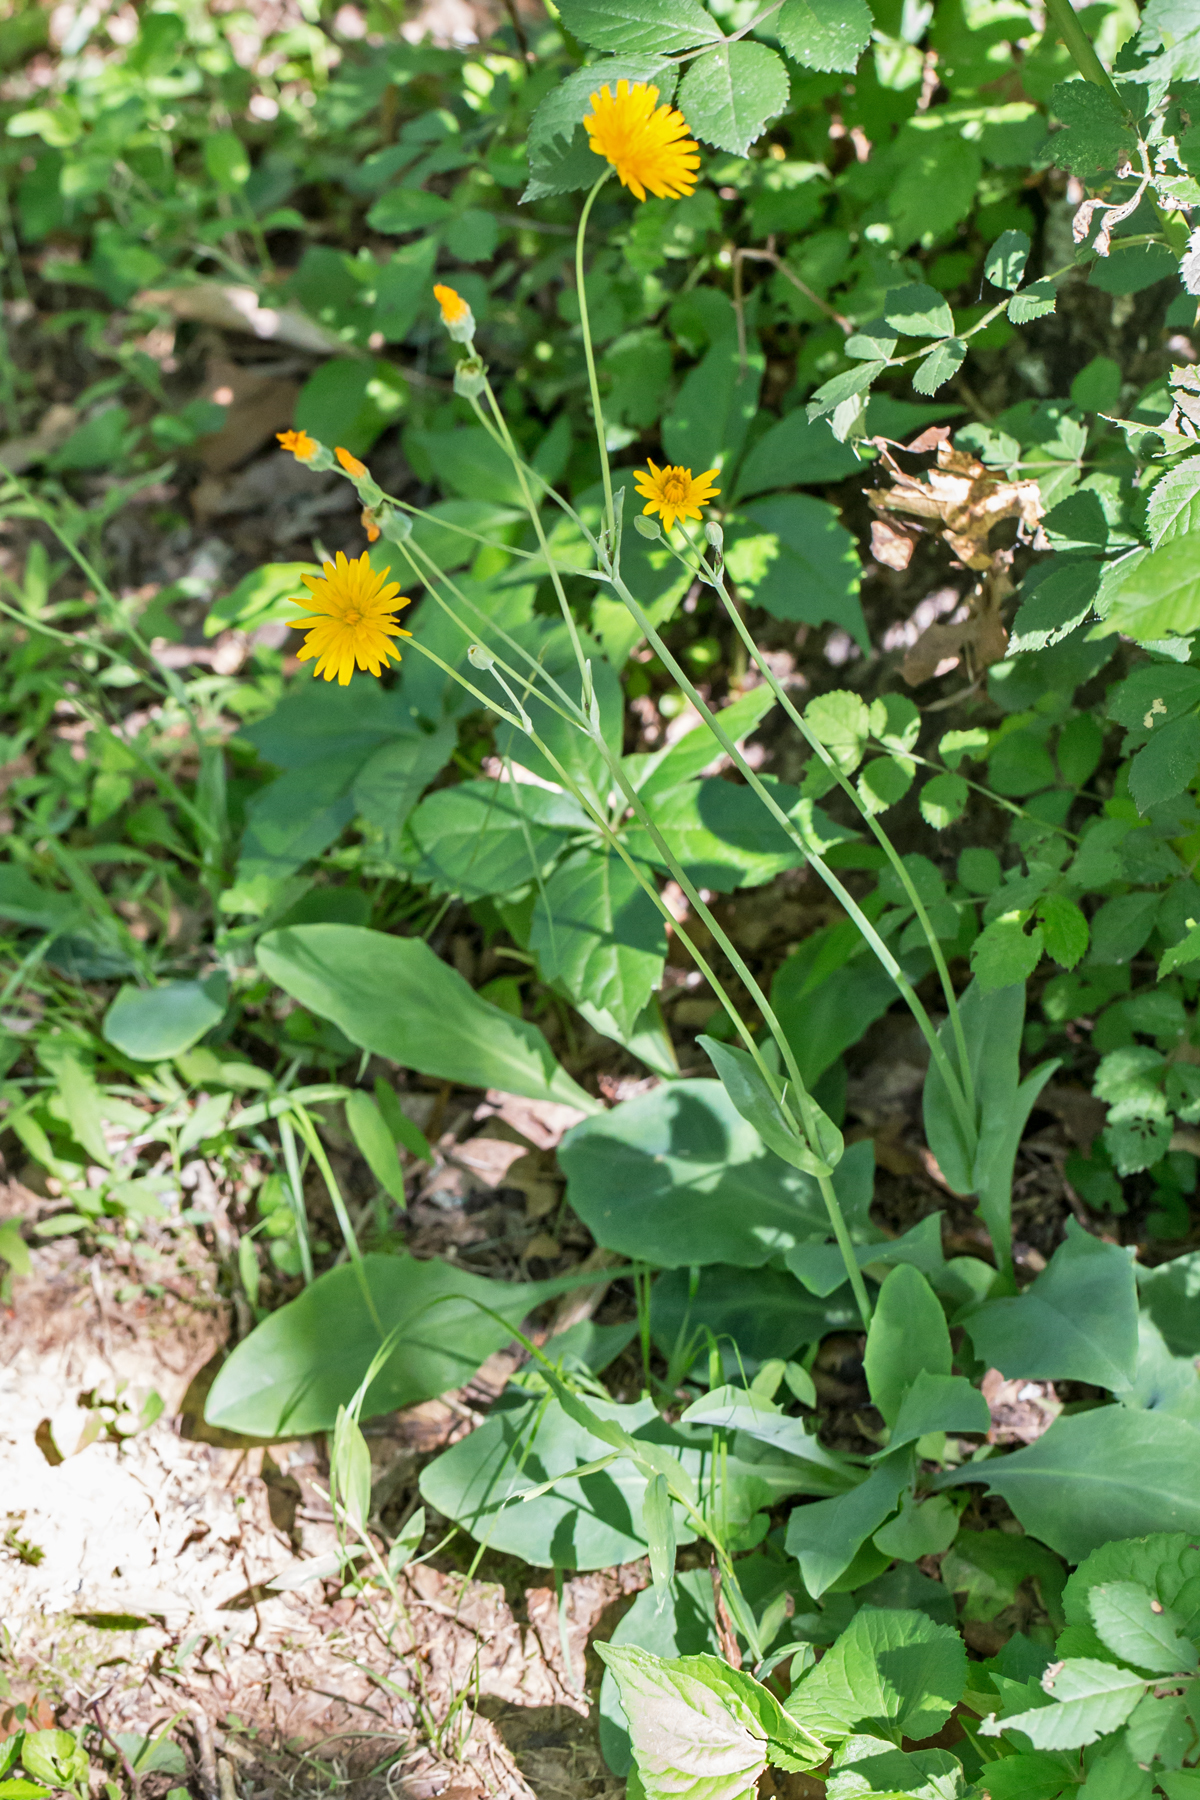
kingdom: Plantae
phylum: Tracheophyta
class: Magnoliopsida
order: Asterales
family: Asteraceae
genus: Krigia
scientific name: Krigia biflora
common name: Orange dwarf-dandelion
